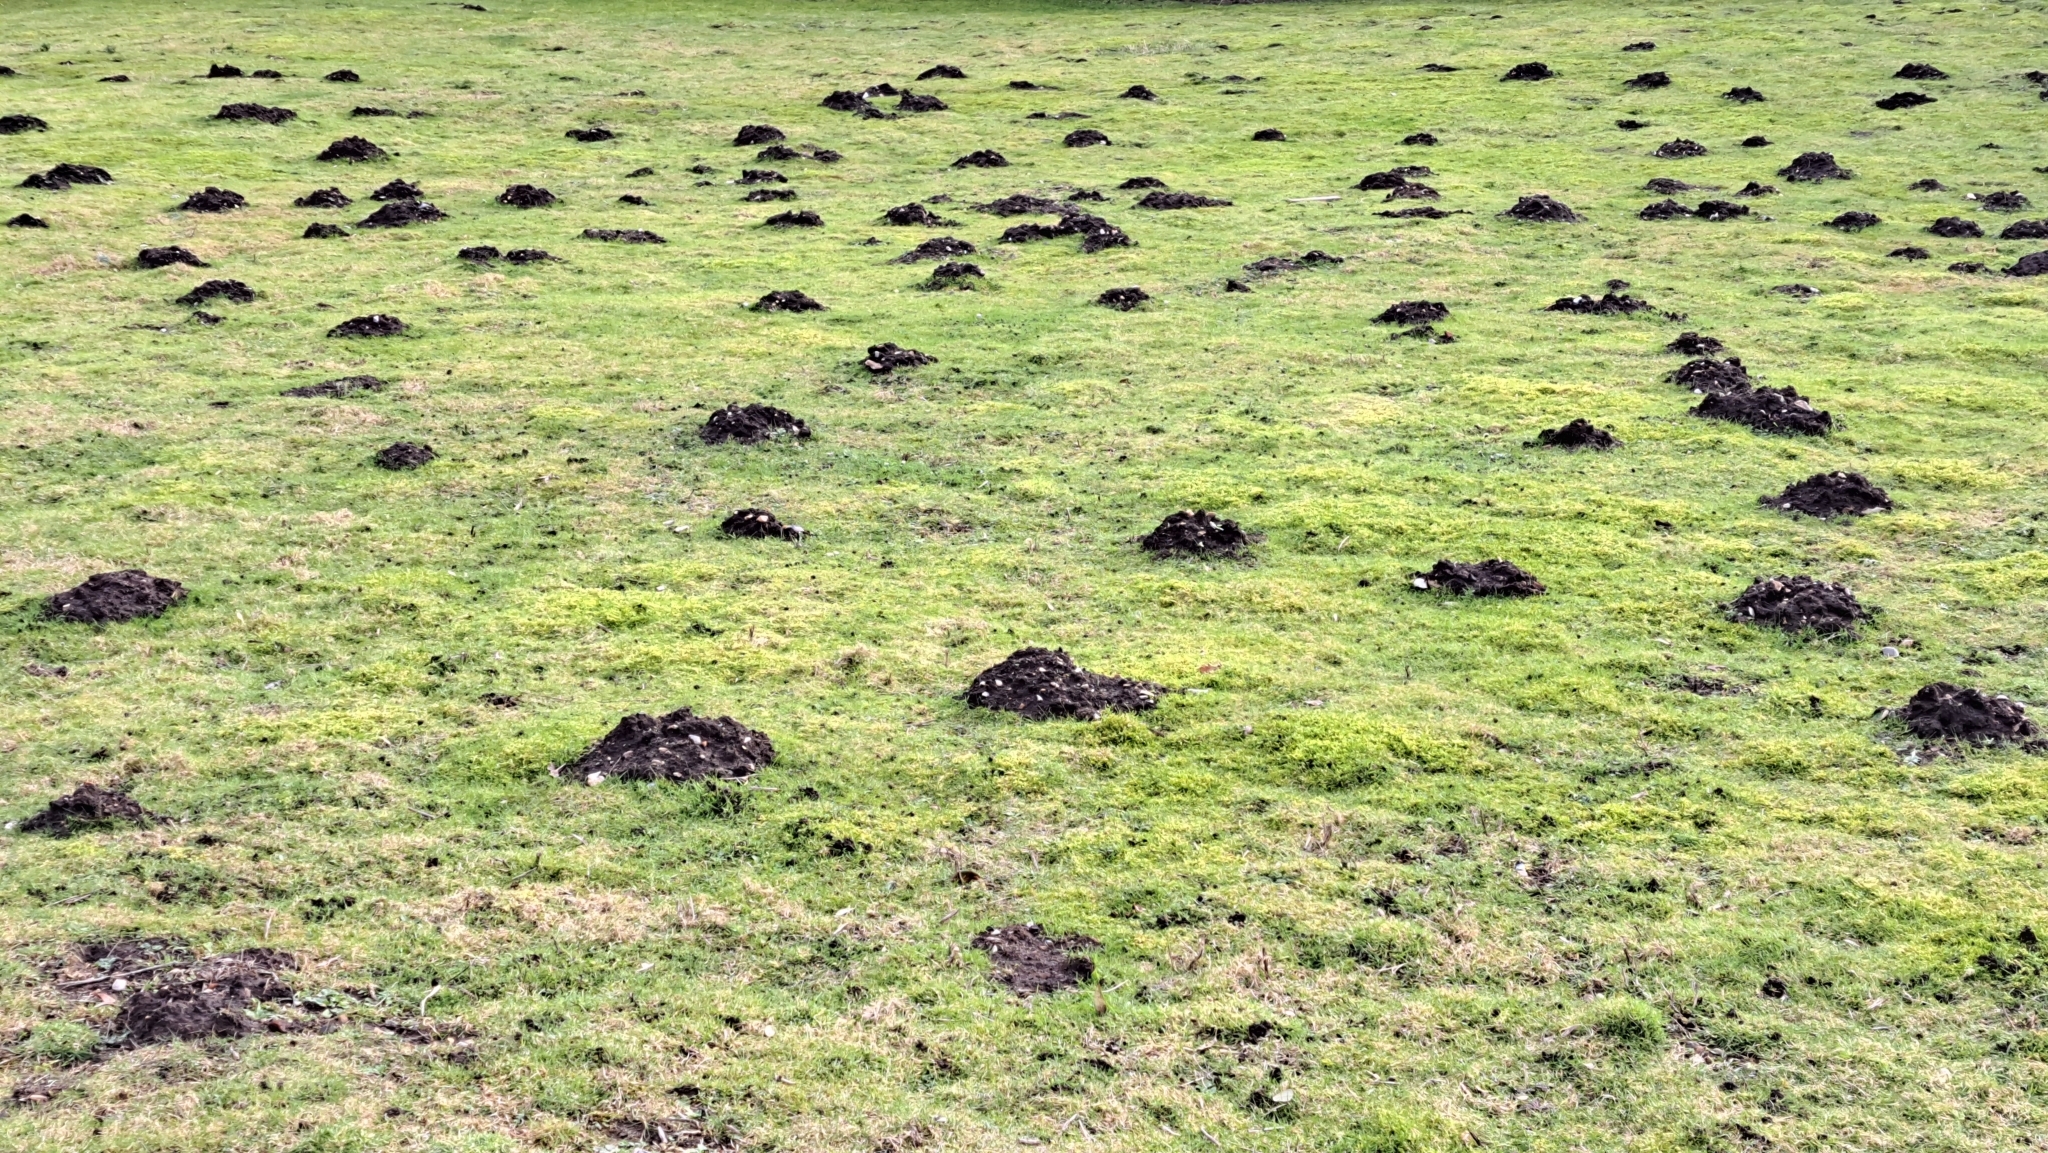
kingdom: Animalia
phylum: Chordata
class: Mammalia
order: Soricomorpha
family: Talpidae
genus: Talpa
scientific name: Talpa europaea
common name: European mole
